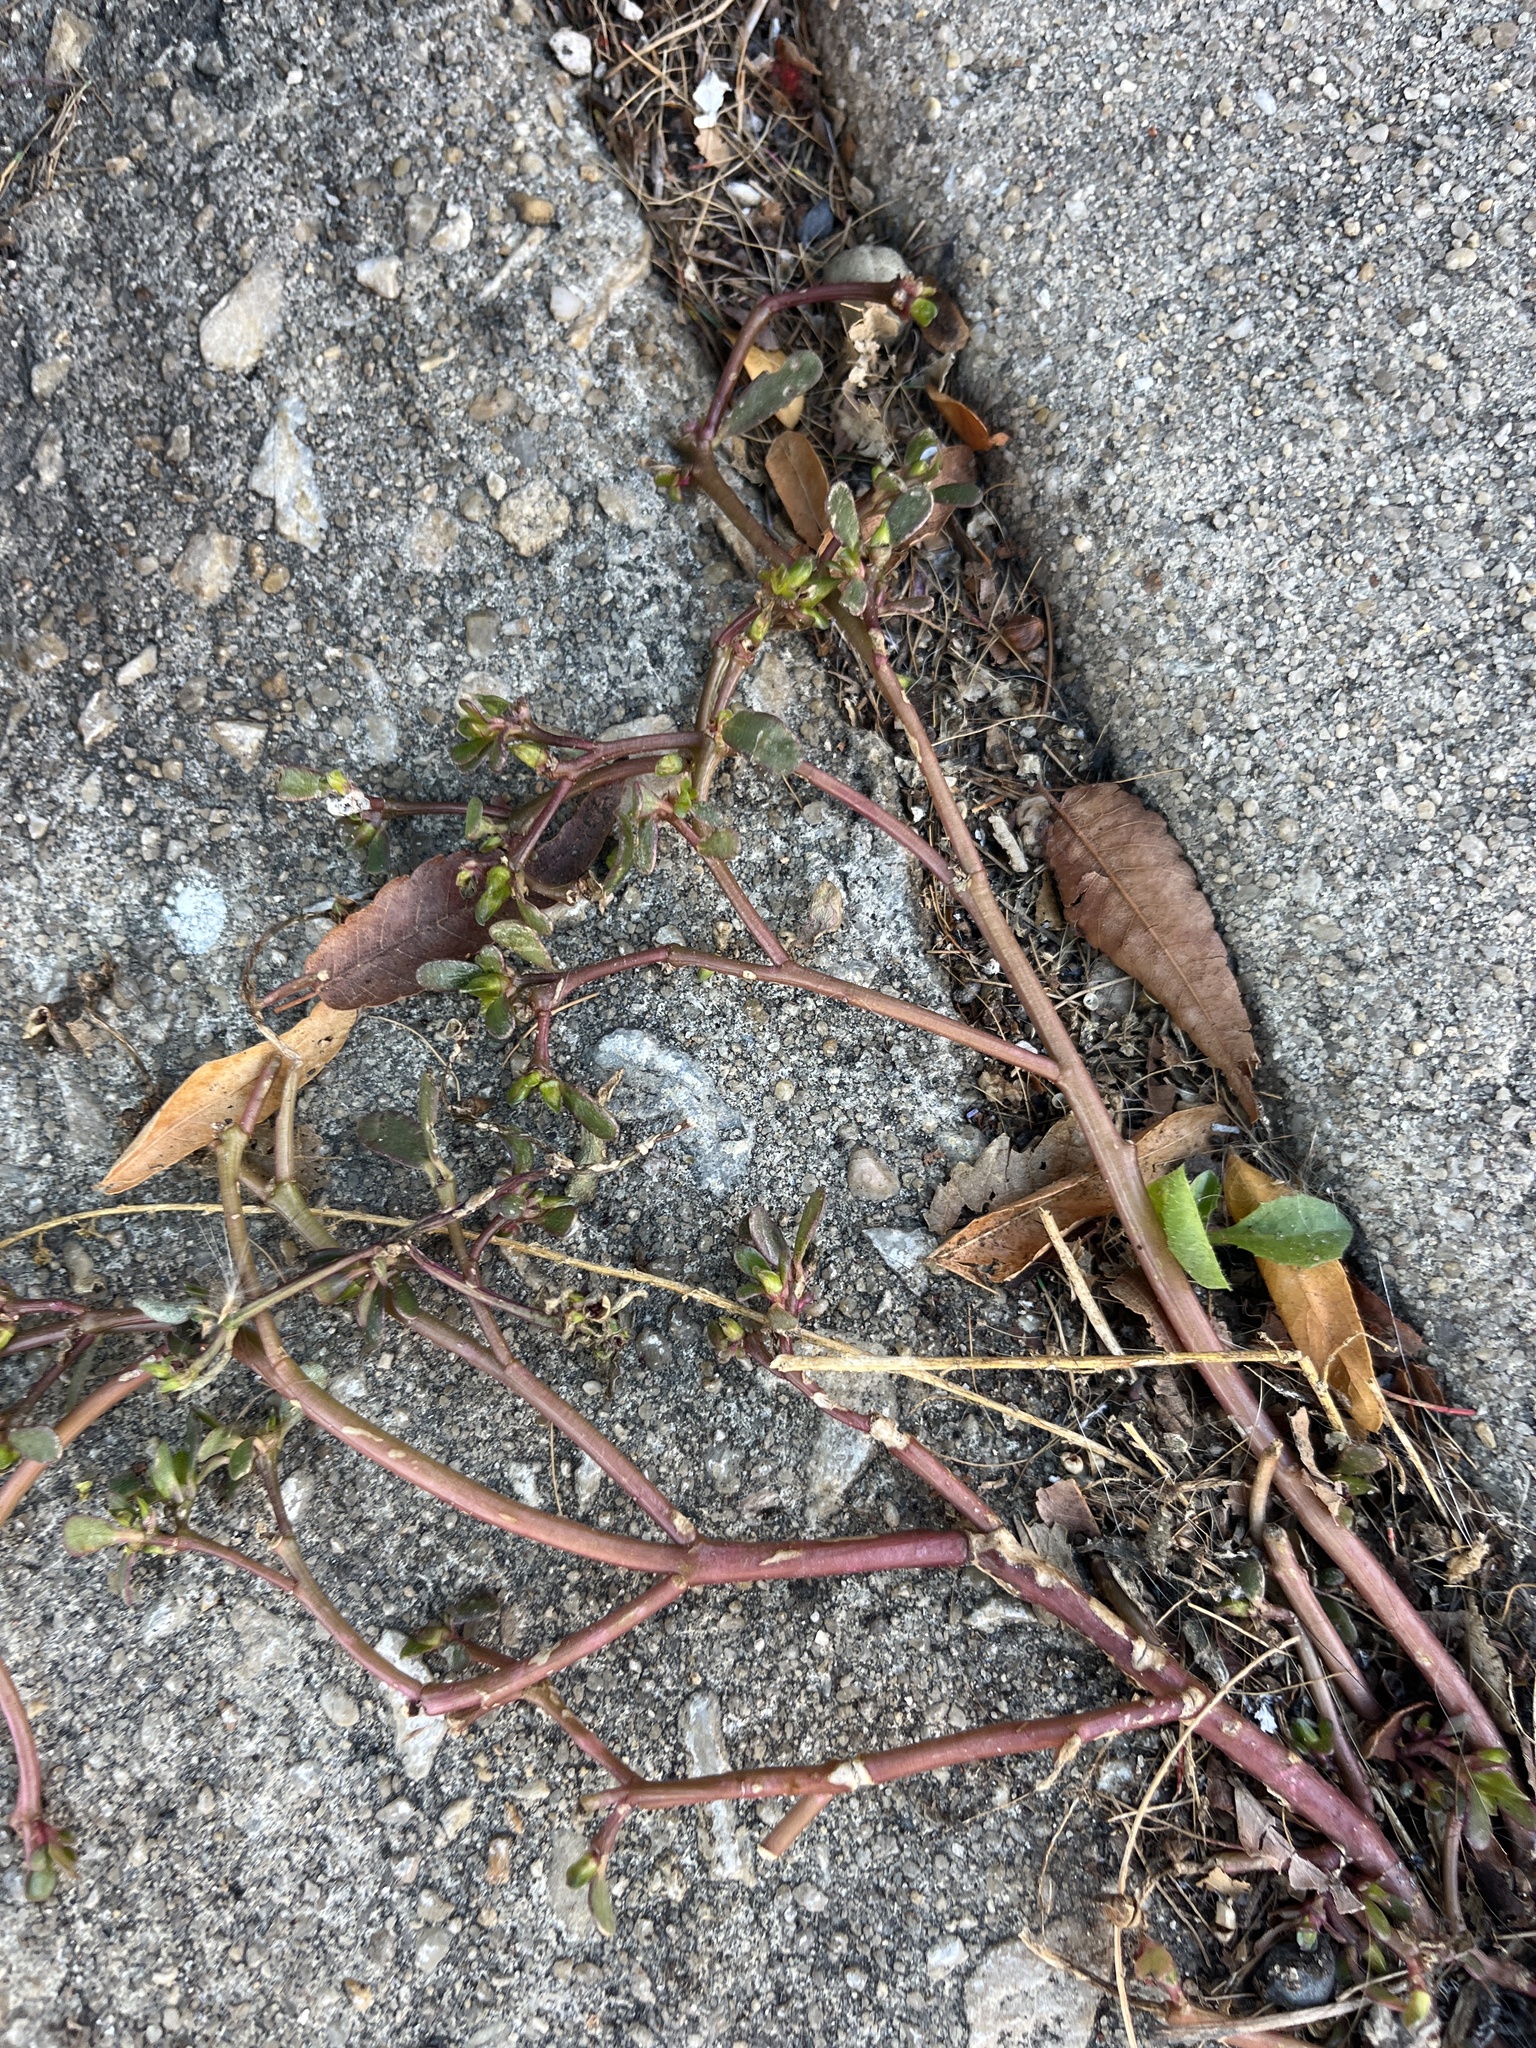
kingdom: Plantae
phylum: Tracheophyta
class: Magnoliopsida
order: Caryophyllales
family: Portulacaceae
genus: Portulaca
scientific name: Portulaca oleracea
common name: Common purslane
